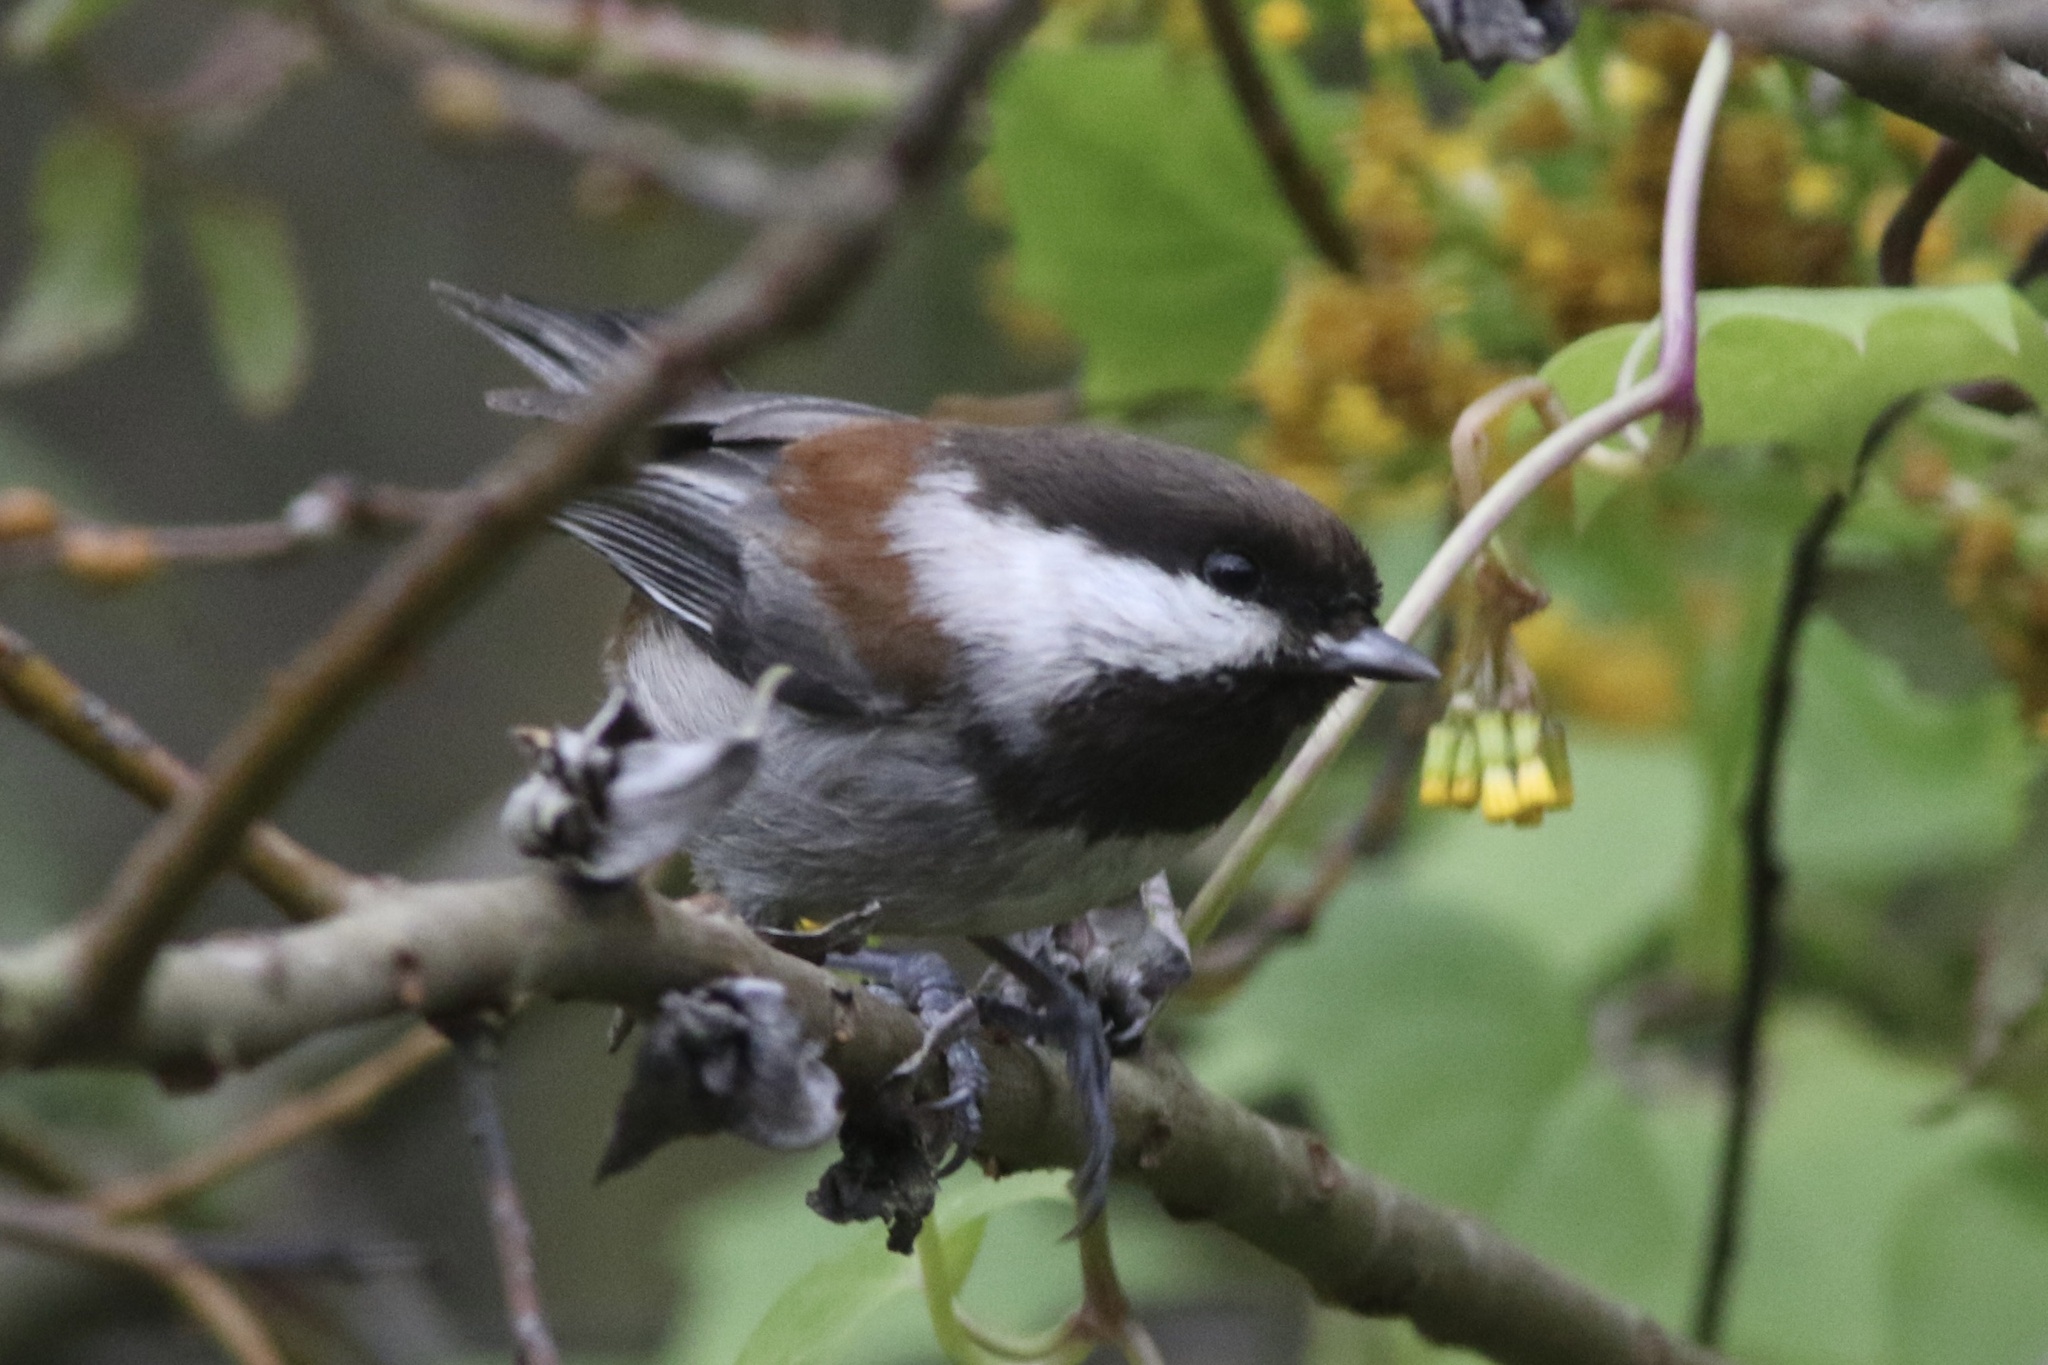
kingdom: Animalia
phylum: Chordata
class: Aves
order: Passeriformes
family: Paridae
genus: Poecile
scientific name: Poecile rufescens
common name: Chestnut-backed chickadee
